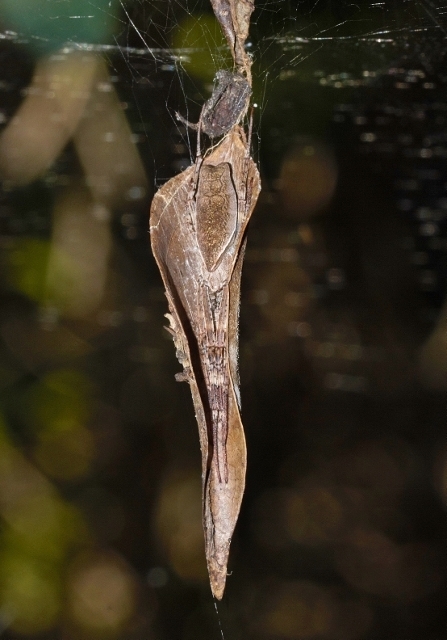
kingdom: Animalia
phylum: Arthropoda
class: Arachnida
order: Araneae
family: Araneidae
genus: Cyrtophora
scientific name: Cyrtophora petersi
